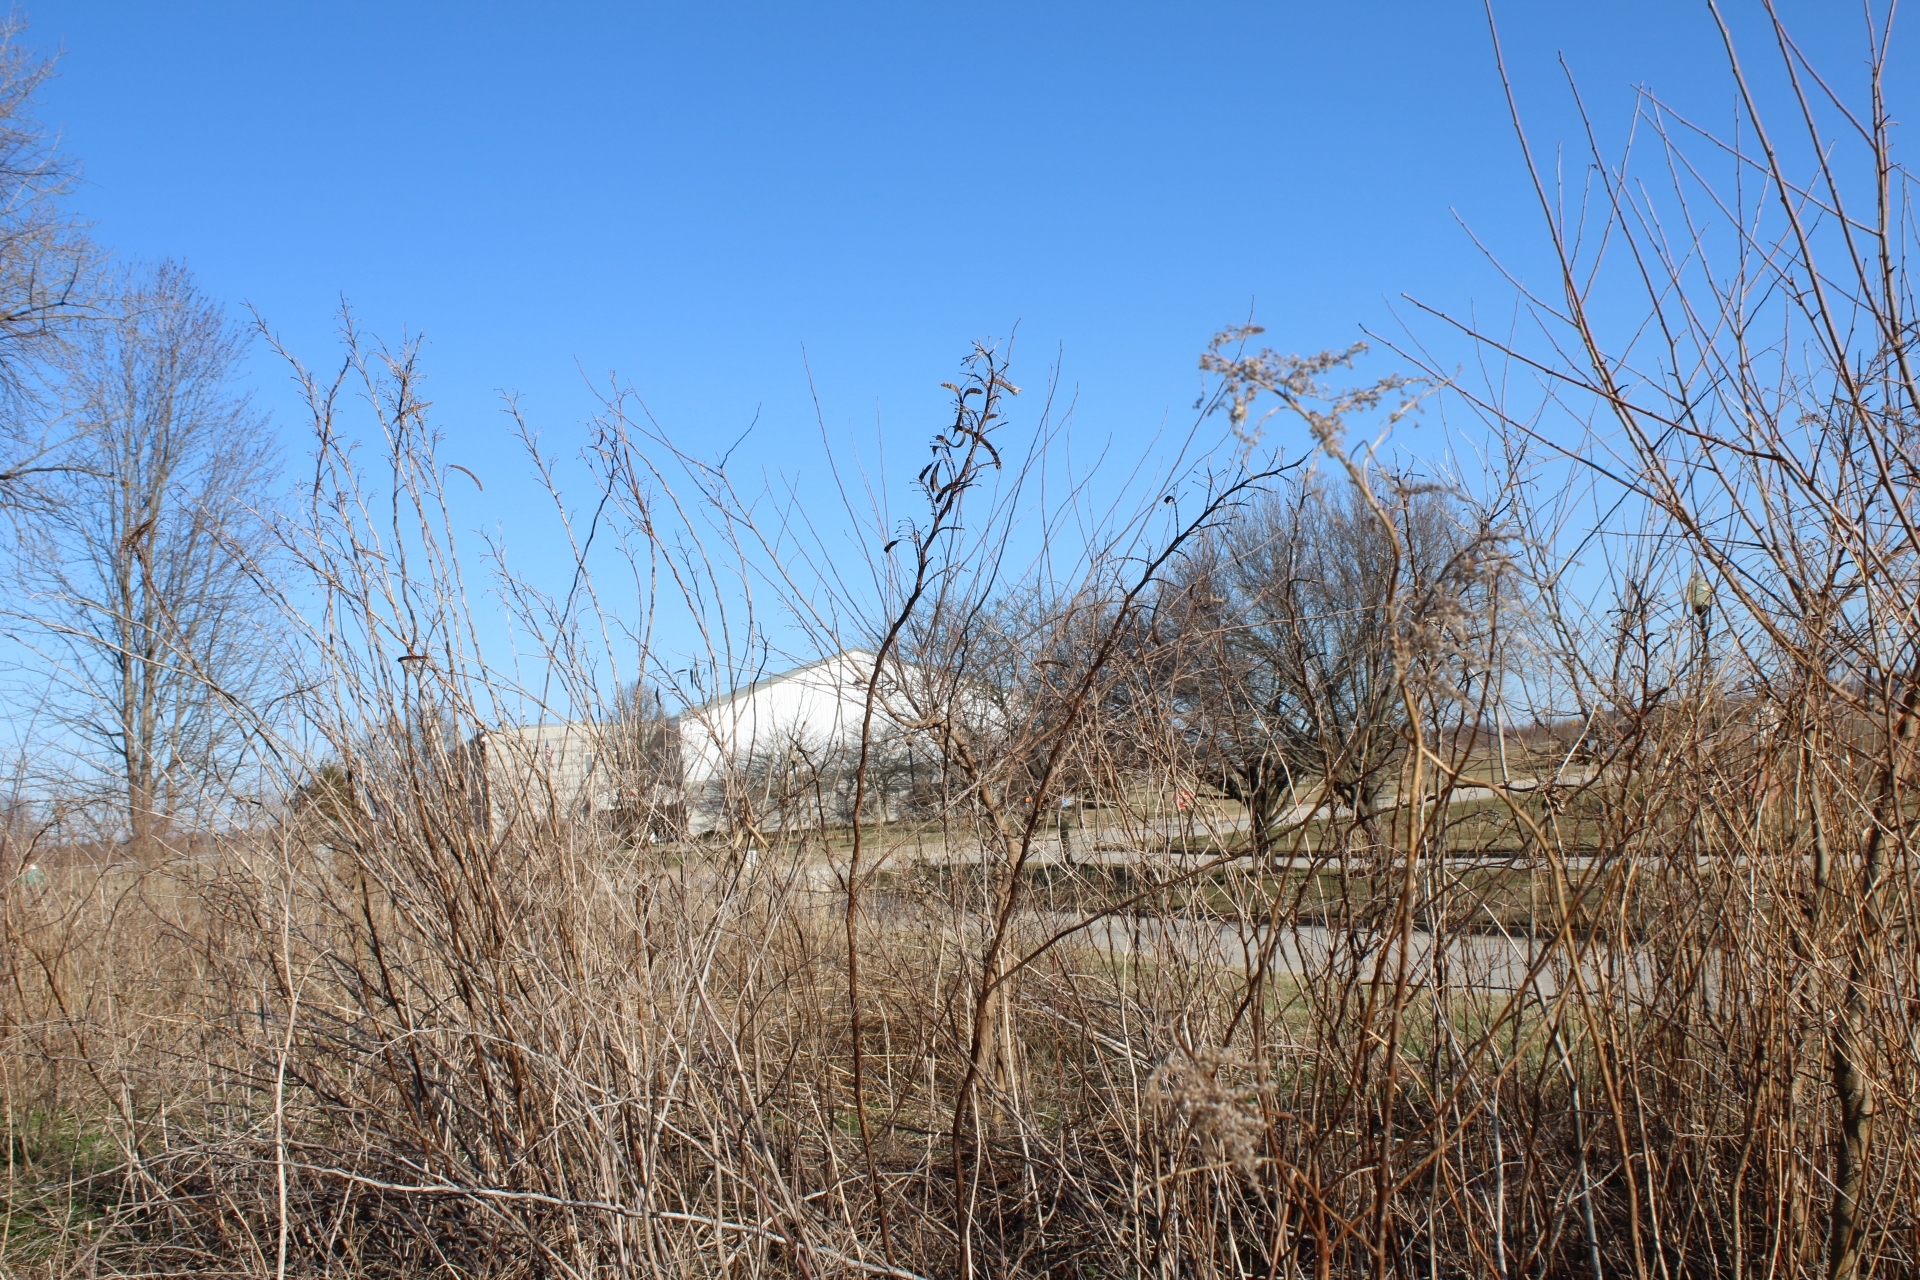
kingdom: Plantae
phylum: Tracheophyta
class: Magnoliopsida
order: Fabales
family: Fabaceae
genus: Senna
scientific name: Senna hebecarpa
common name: Wild senna
